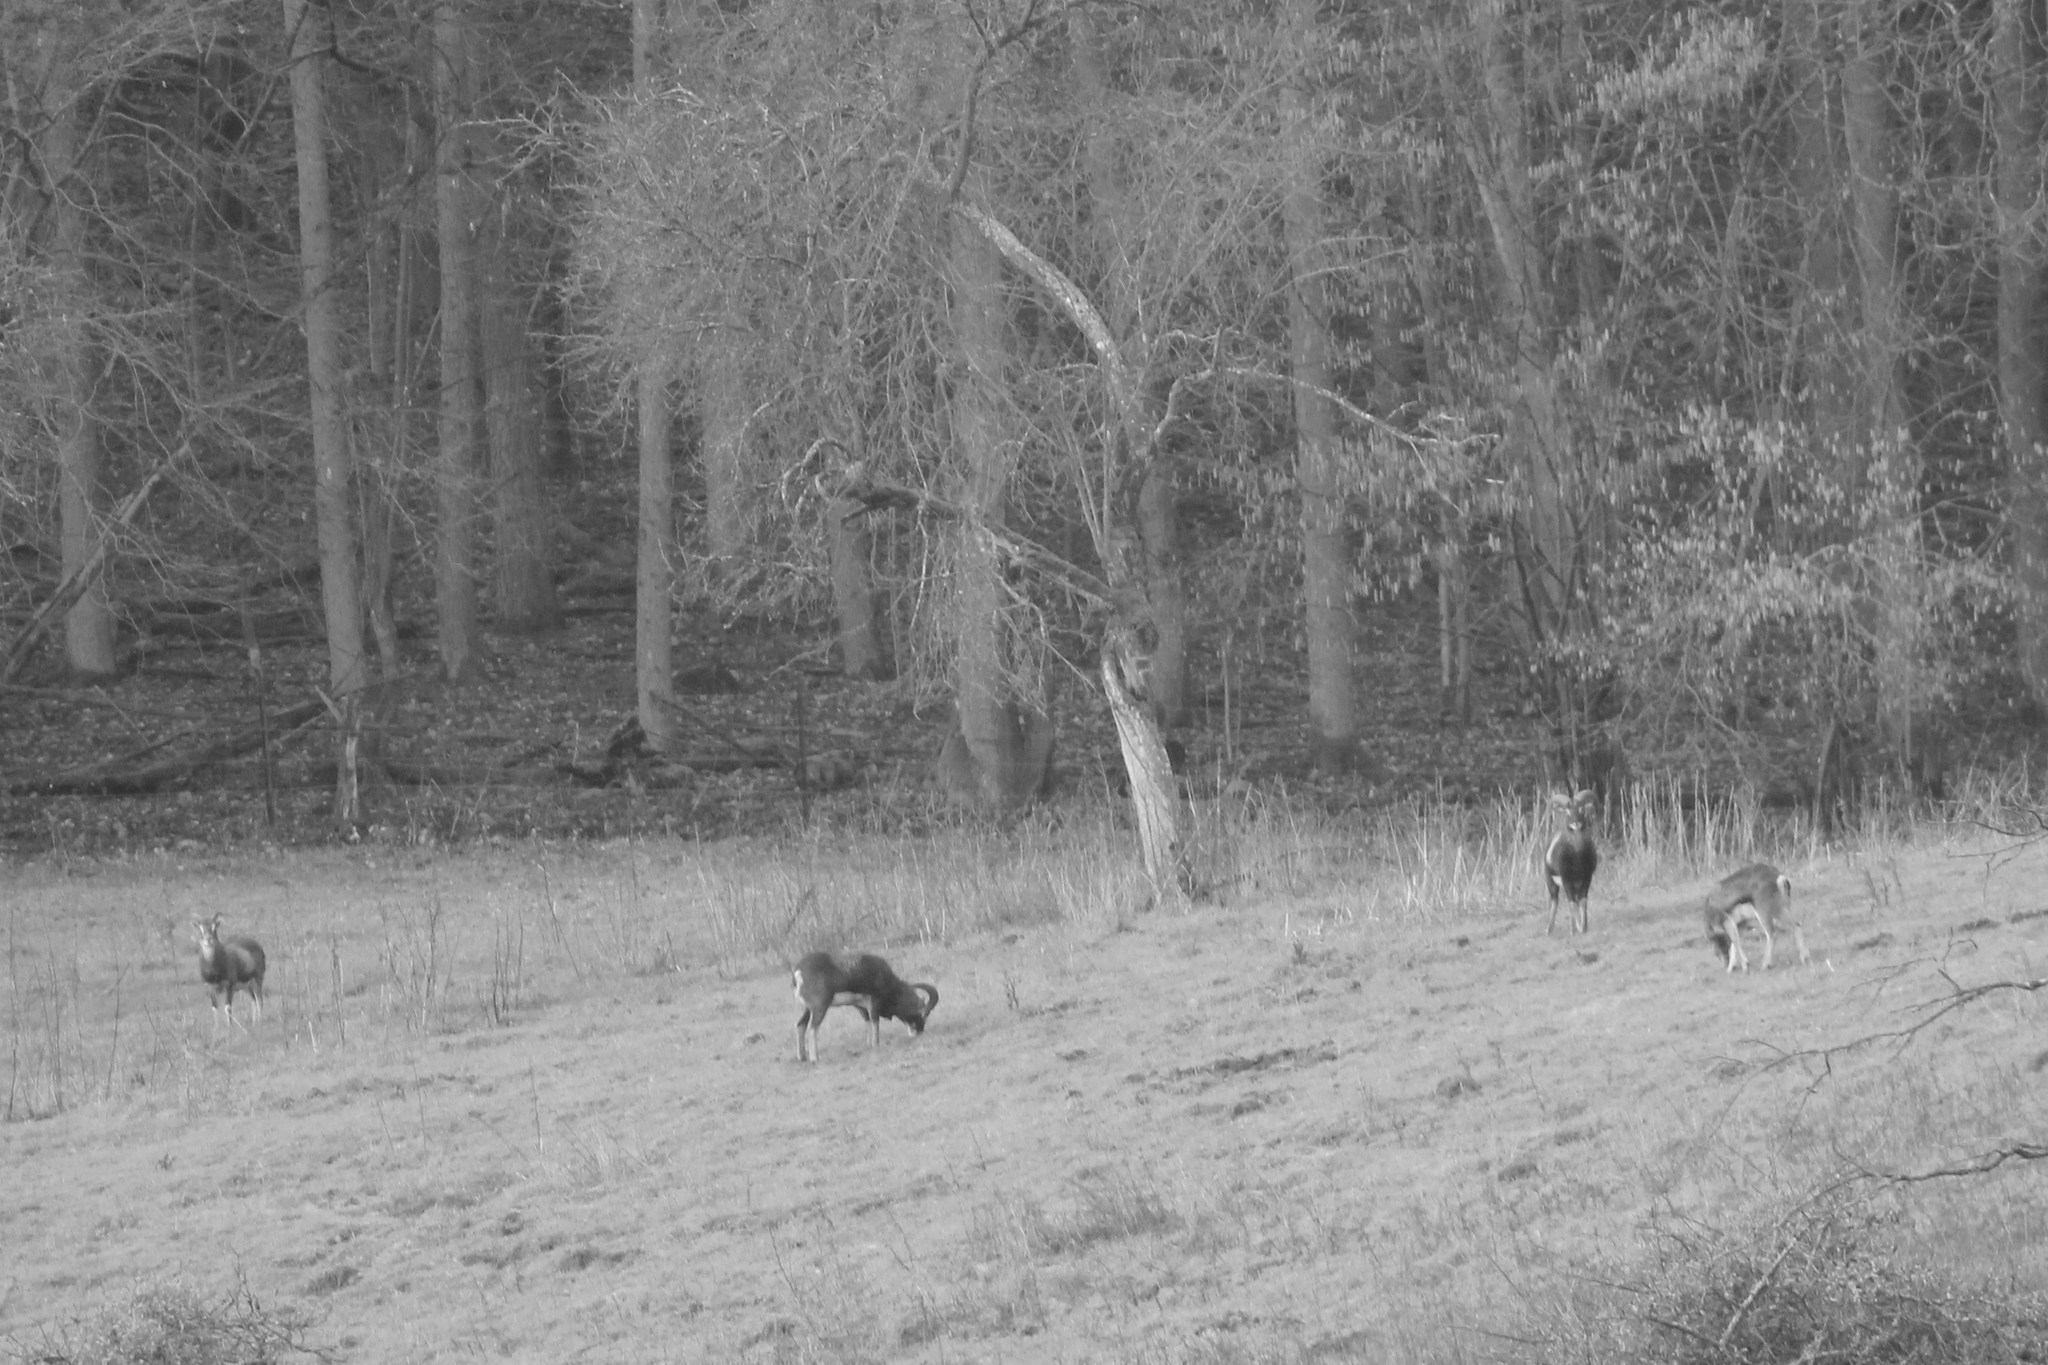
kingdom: Animalia
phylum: Chordata
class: Mammalia
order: Artiodactyla
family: Bovidae
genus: Ovis
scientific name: Ovis aries
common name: Domestic sheep
